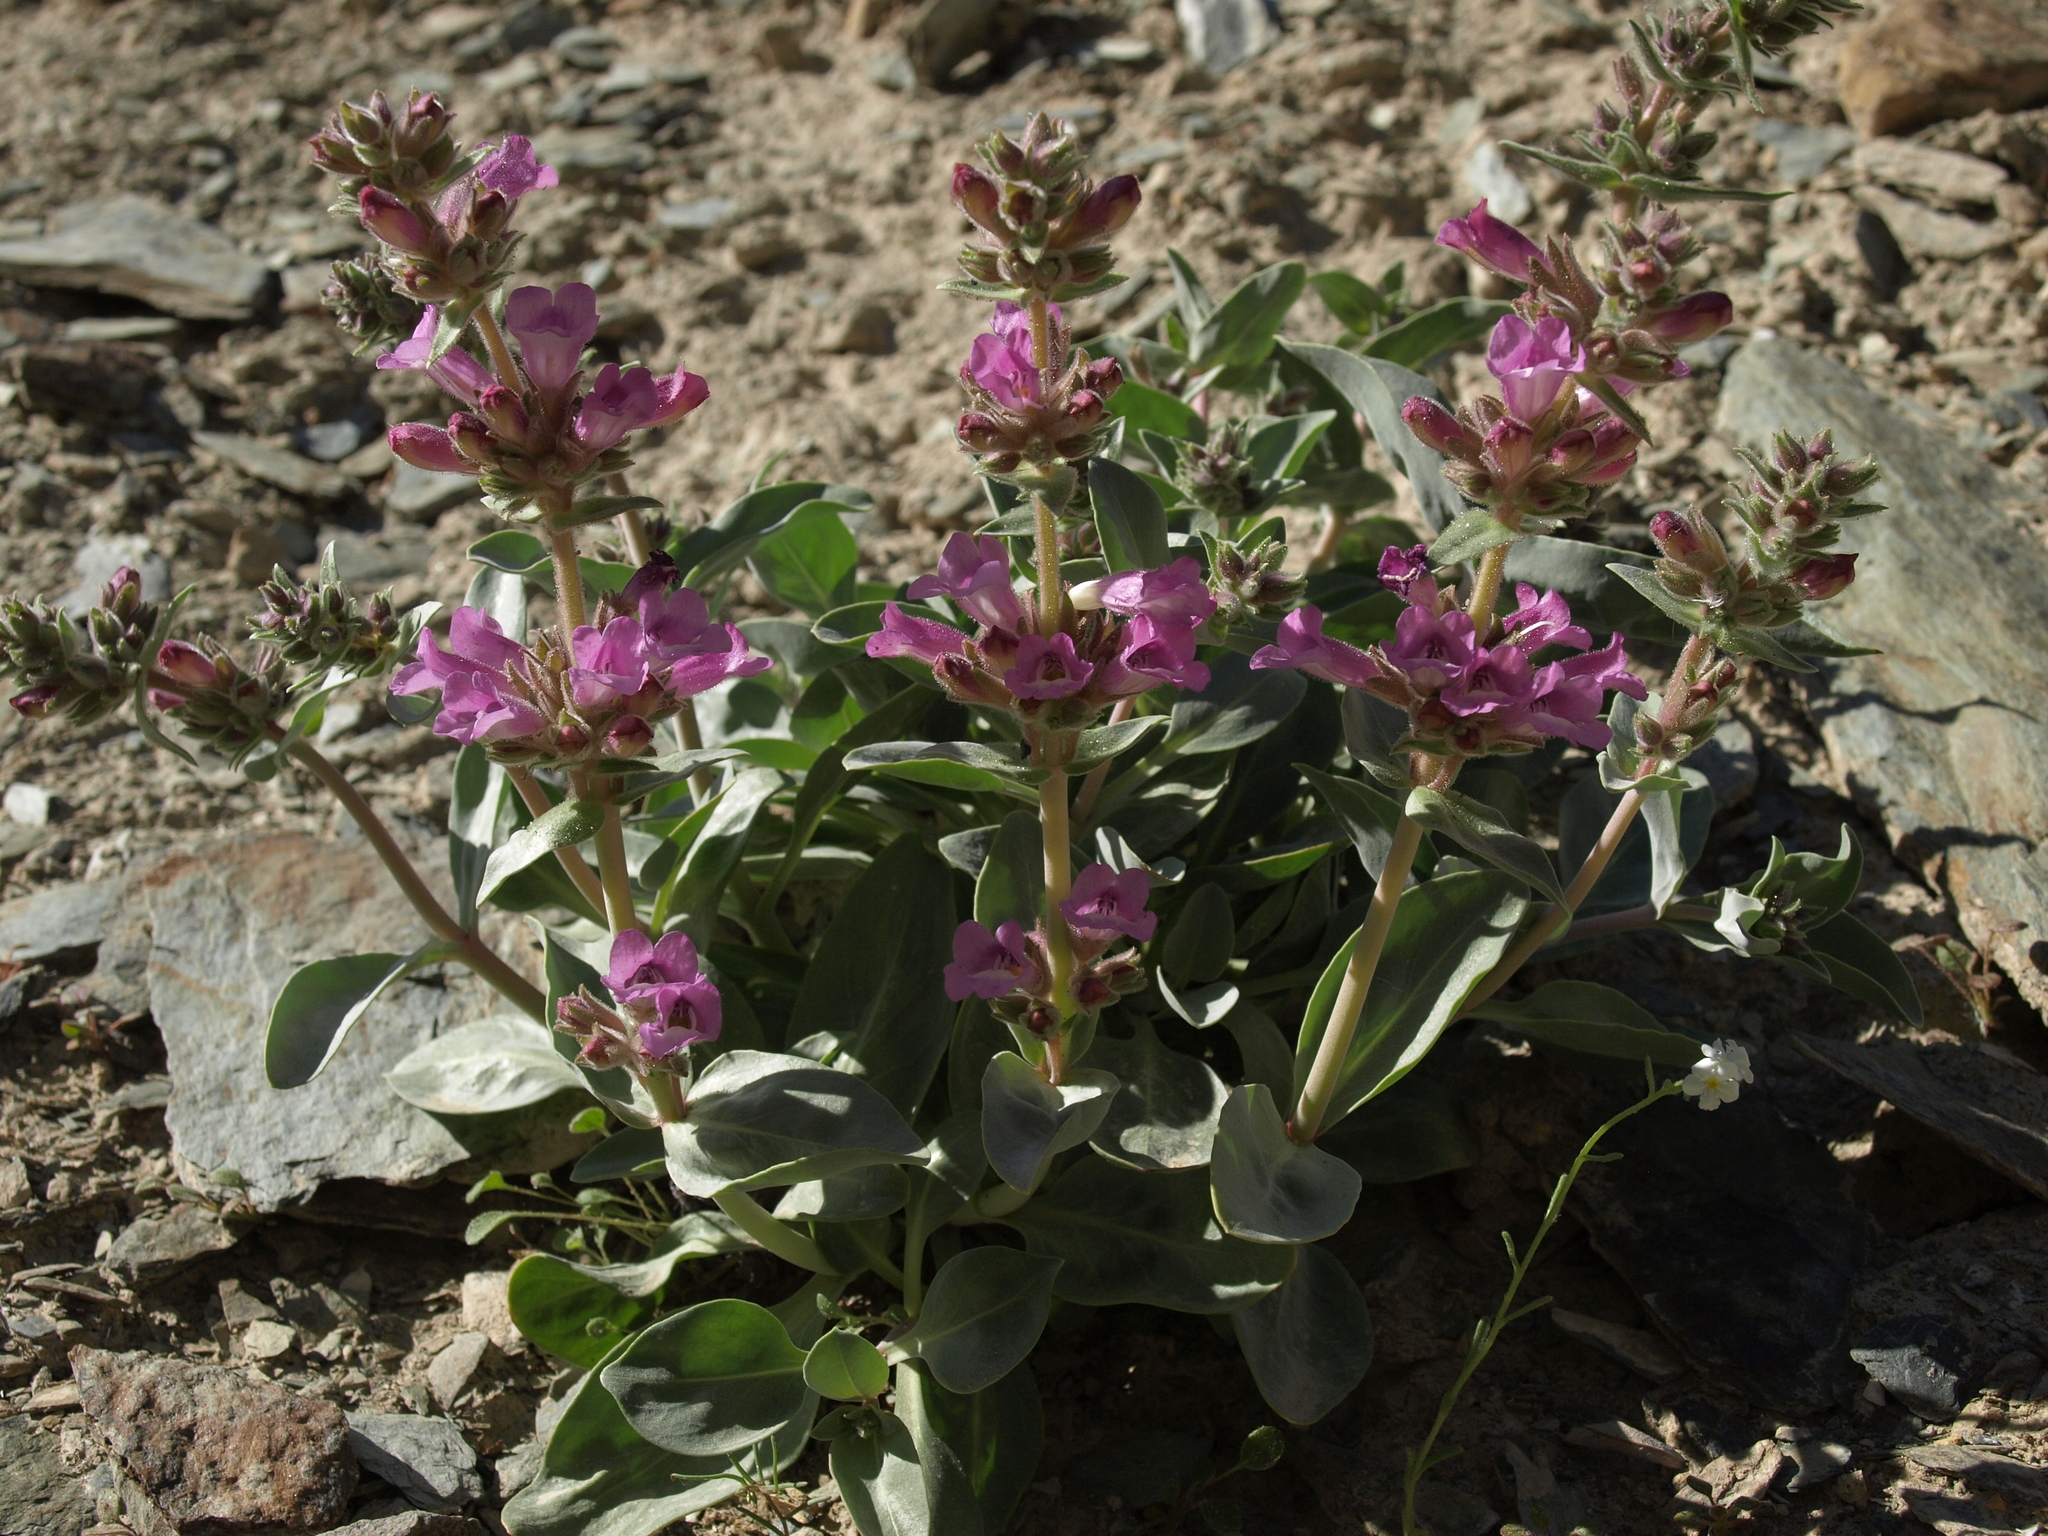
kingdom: Plantae
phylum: Tracheophyta
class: Magnoliopsida
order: Lamiales
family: Plantaginaceae
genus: Penstemon
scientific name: Penstemon monoensis
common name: Mono penstemon
